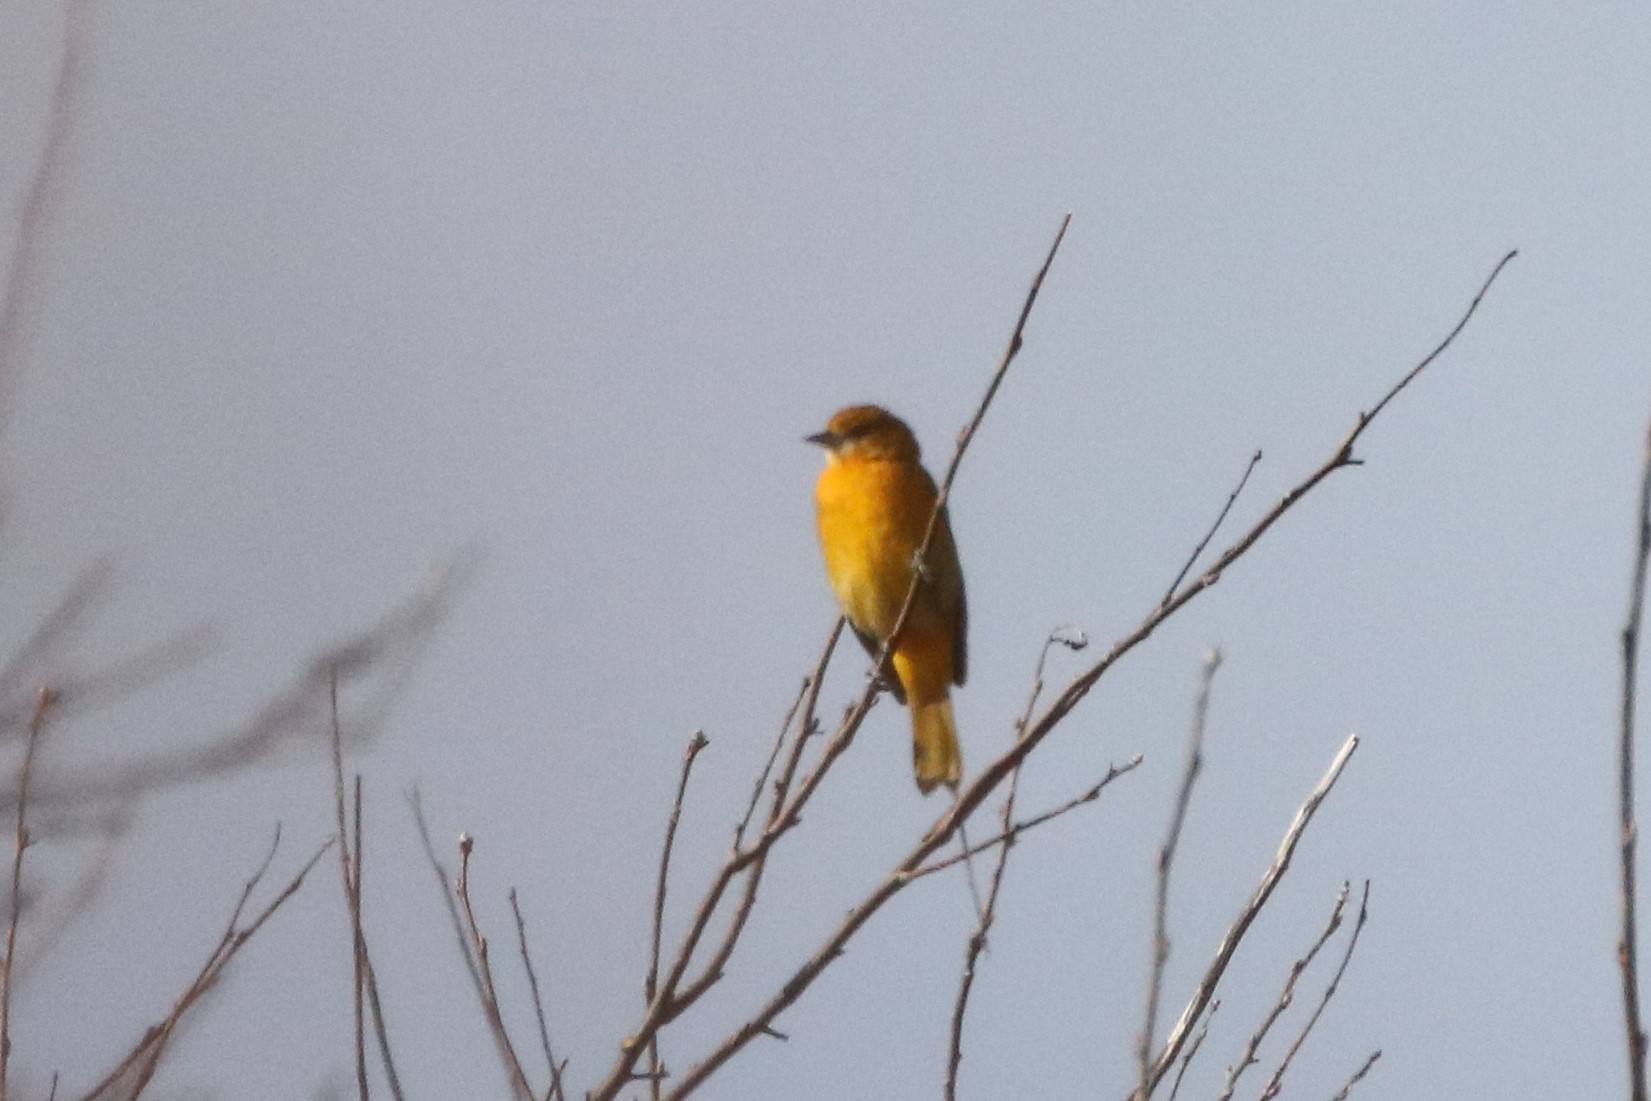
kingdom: Animalia
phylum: Chordata
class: Aves
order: Passeriformes
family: Icteridae
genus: Icterus
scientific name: Icterus galbula
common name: Baltimore oriole
